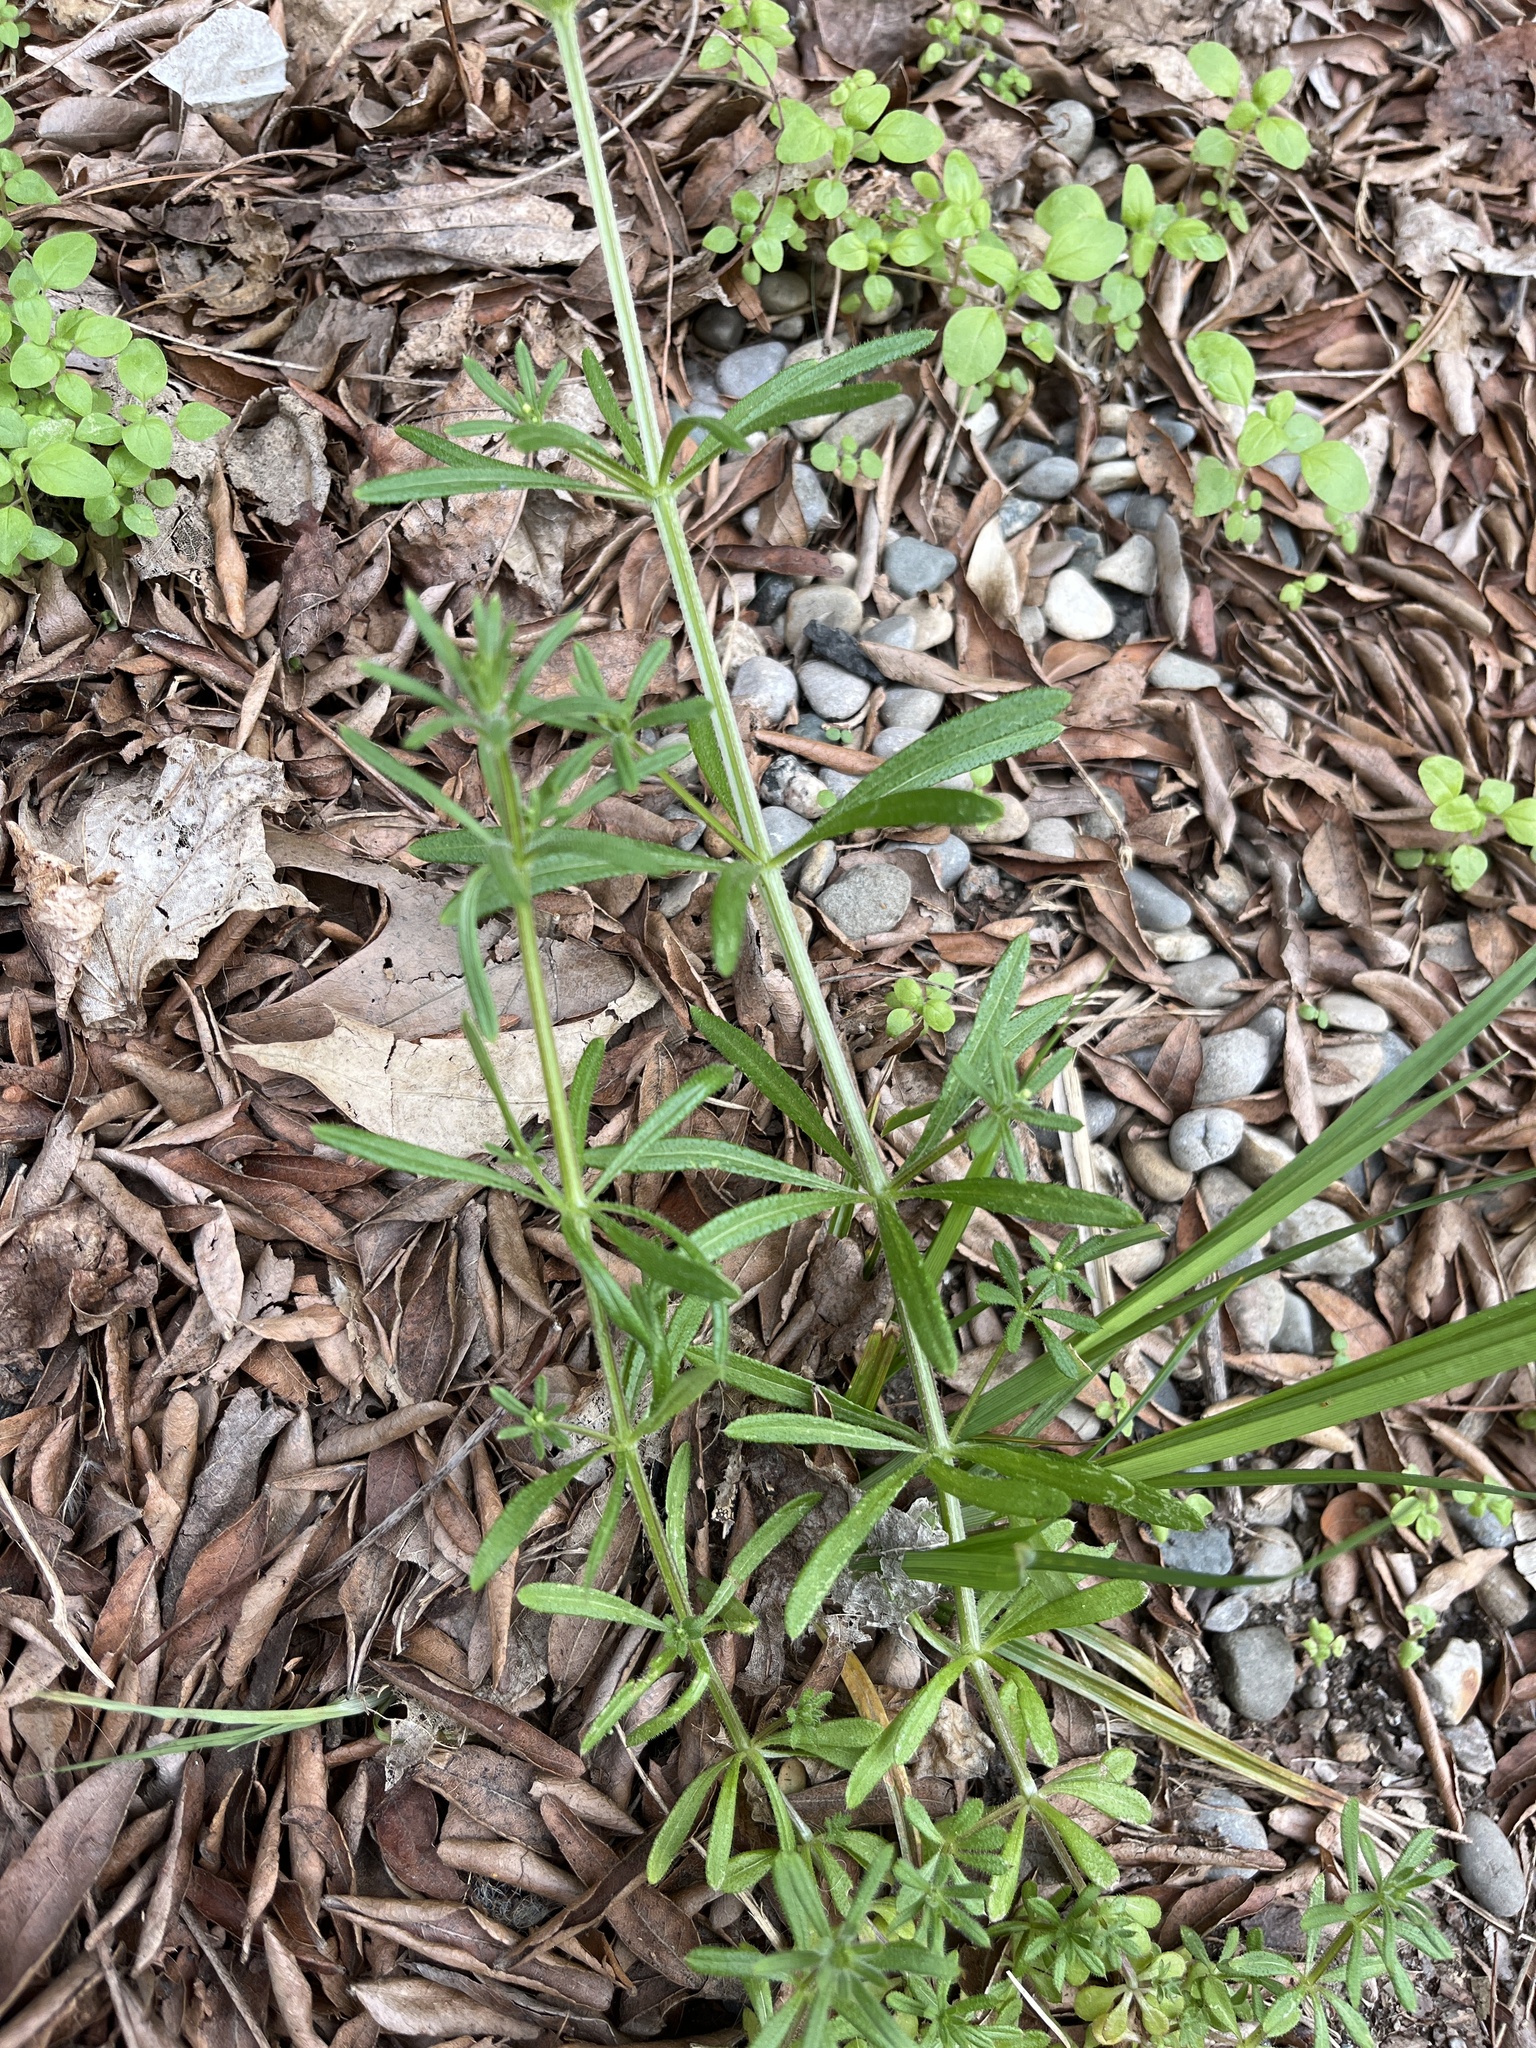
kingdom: Plantae
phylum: Tracheophyta
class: Magnoliopsida
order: Gentianales
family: Rubiaceae
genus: Galium
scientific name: Galium aparine
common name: Cleavers
